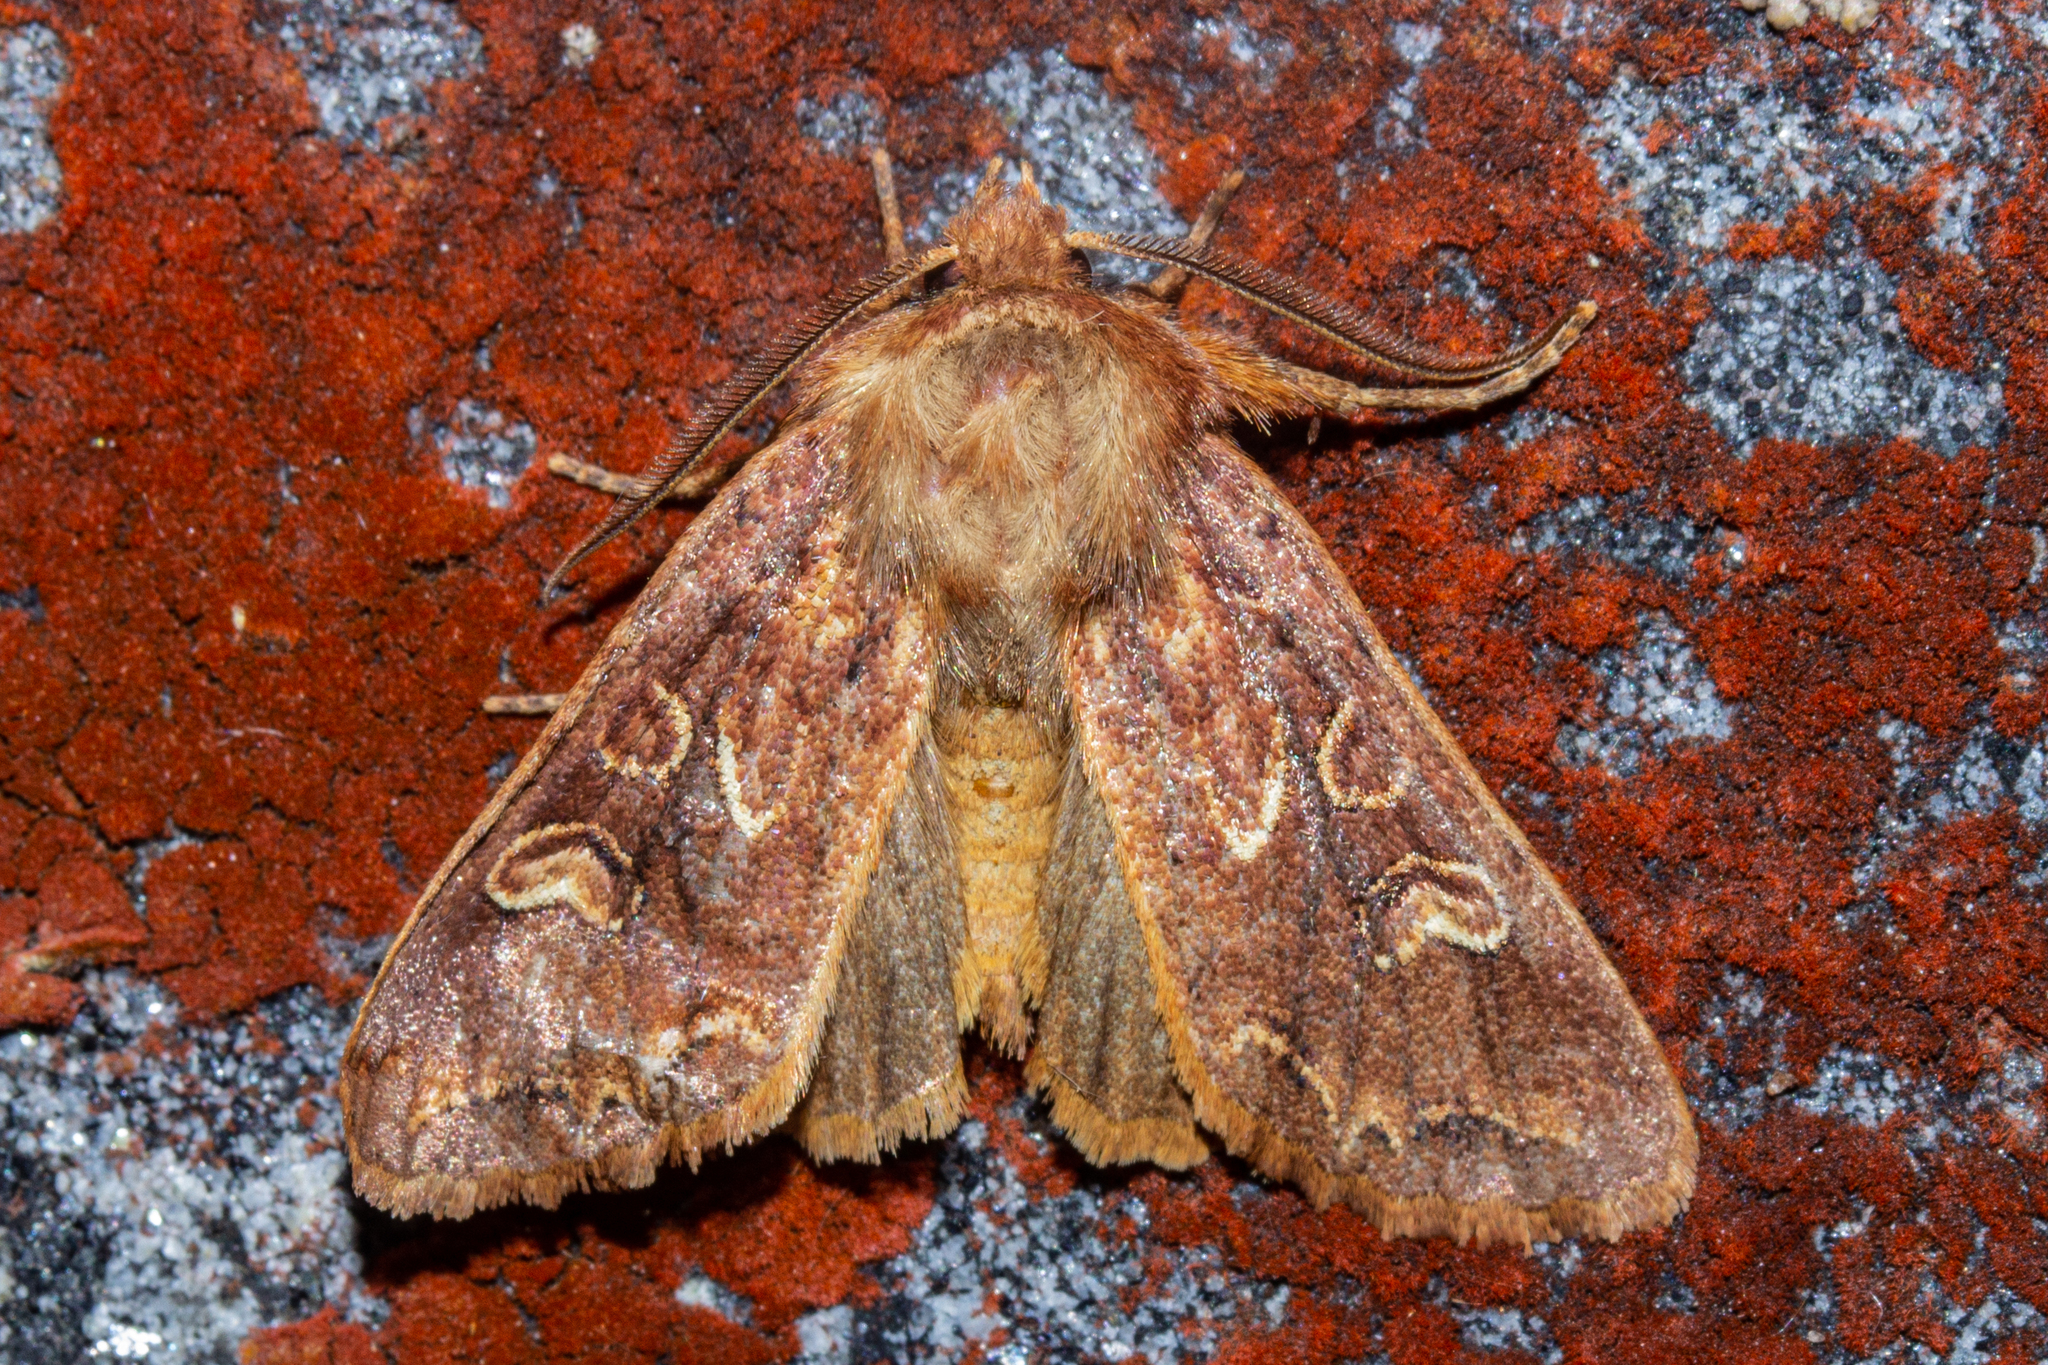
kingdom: Animalia
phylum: Arthropoda
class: Insecta
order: Lepidoptera
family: Noctuidae
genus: Ichneutica
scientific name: Ichneutica
